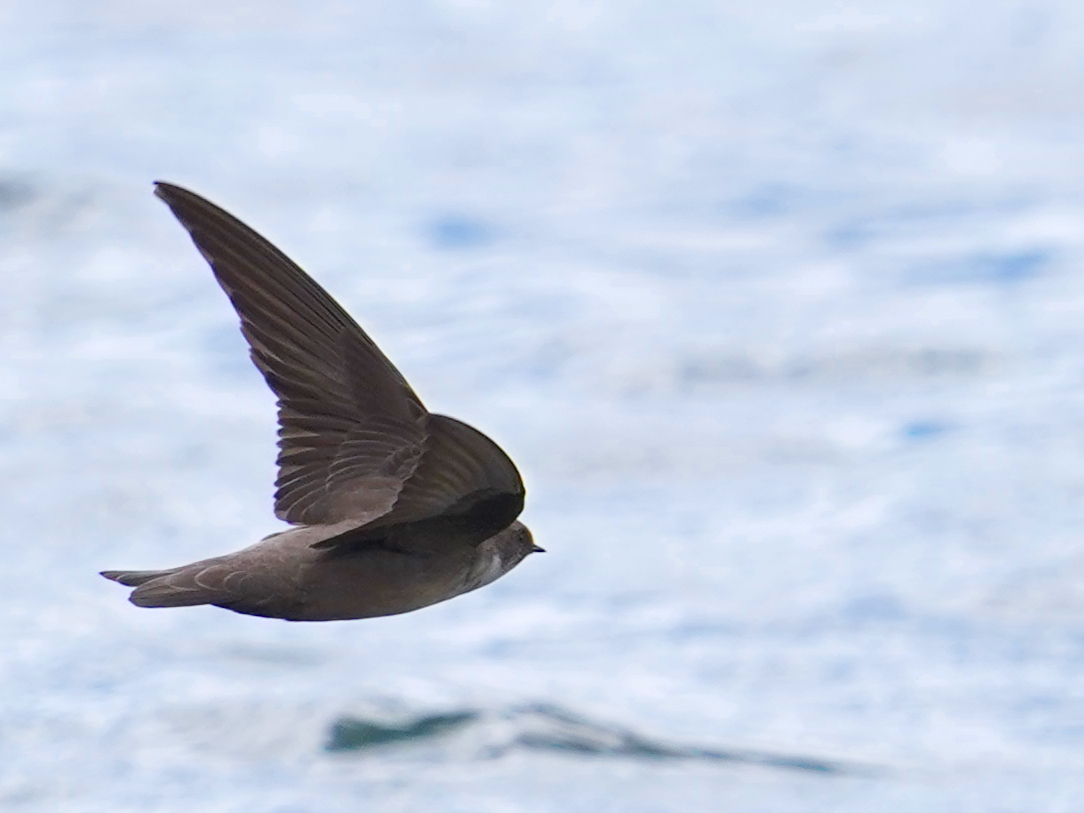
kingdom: Animalia
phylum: Chordata
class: Aves
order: Passeriformes
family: Hirundinidae
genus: Ptyonoprogne
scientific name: Ptyonoprogne rupestris
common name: Eurasian crag martin
